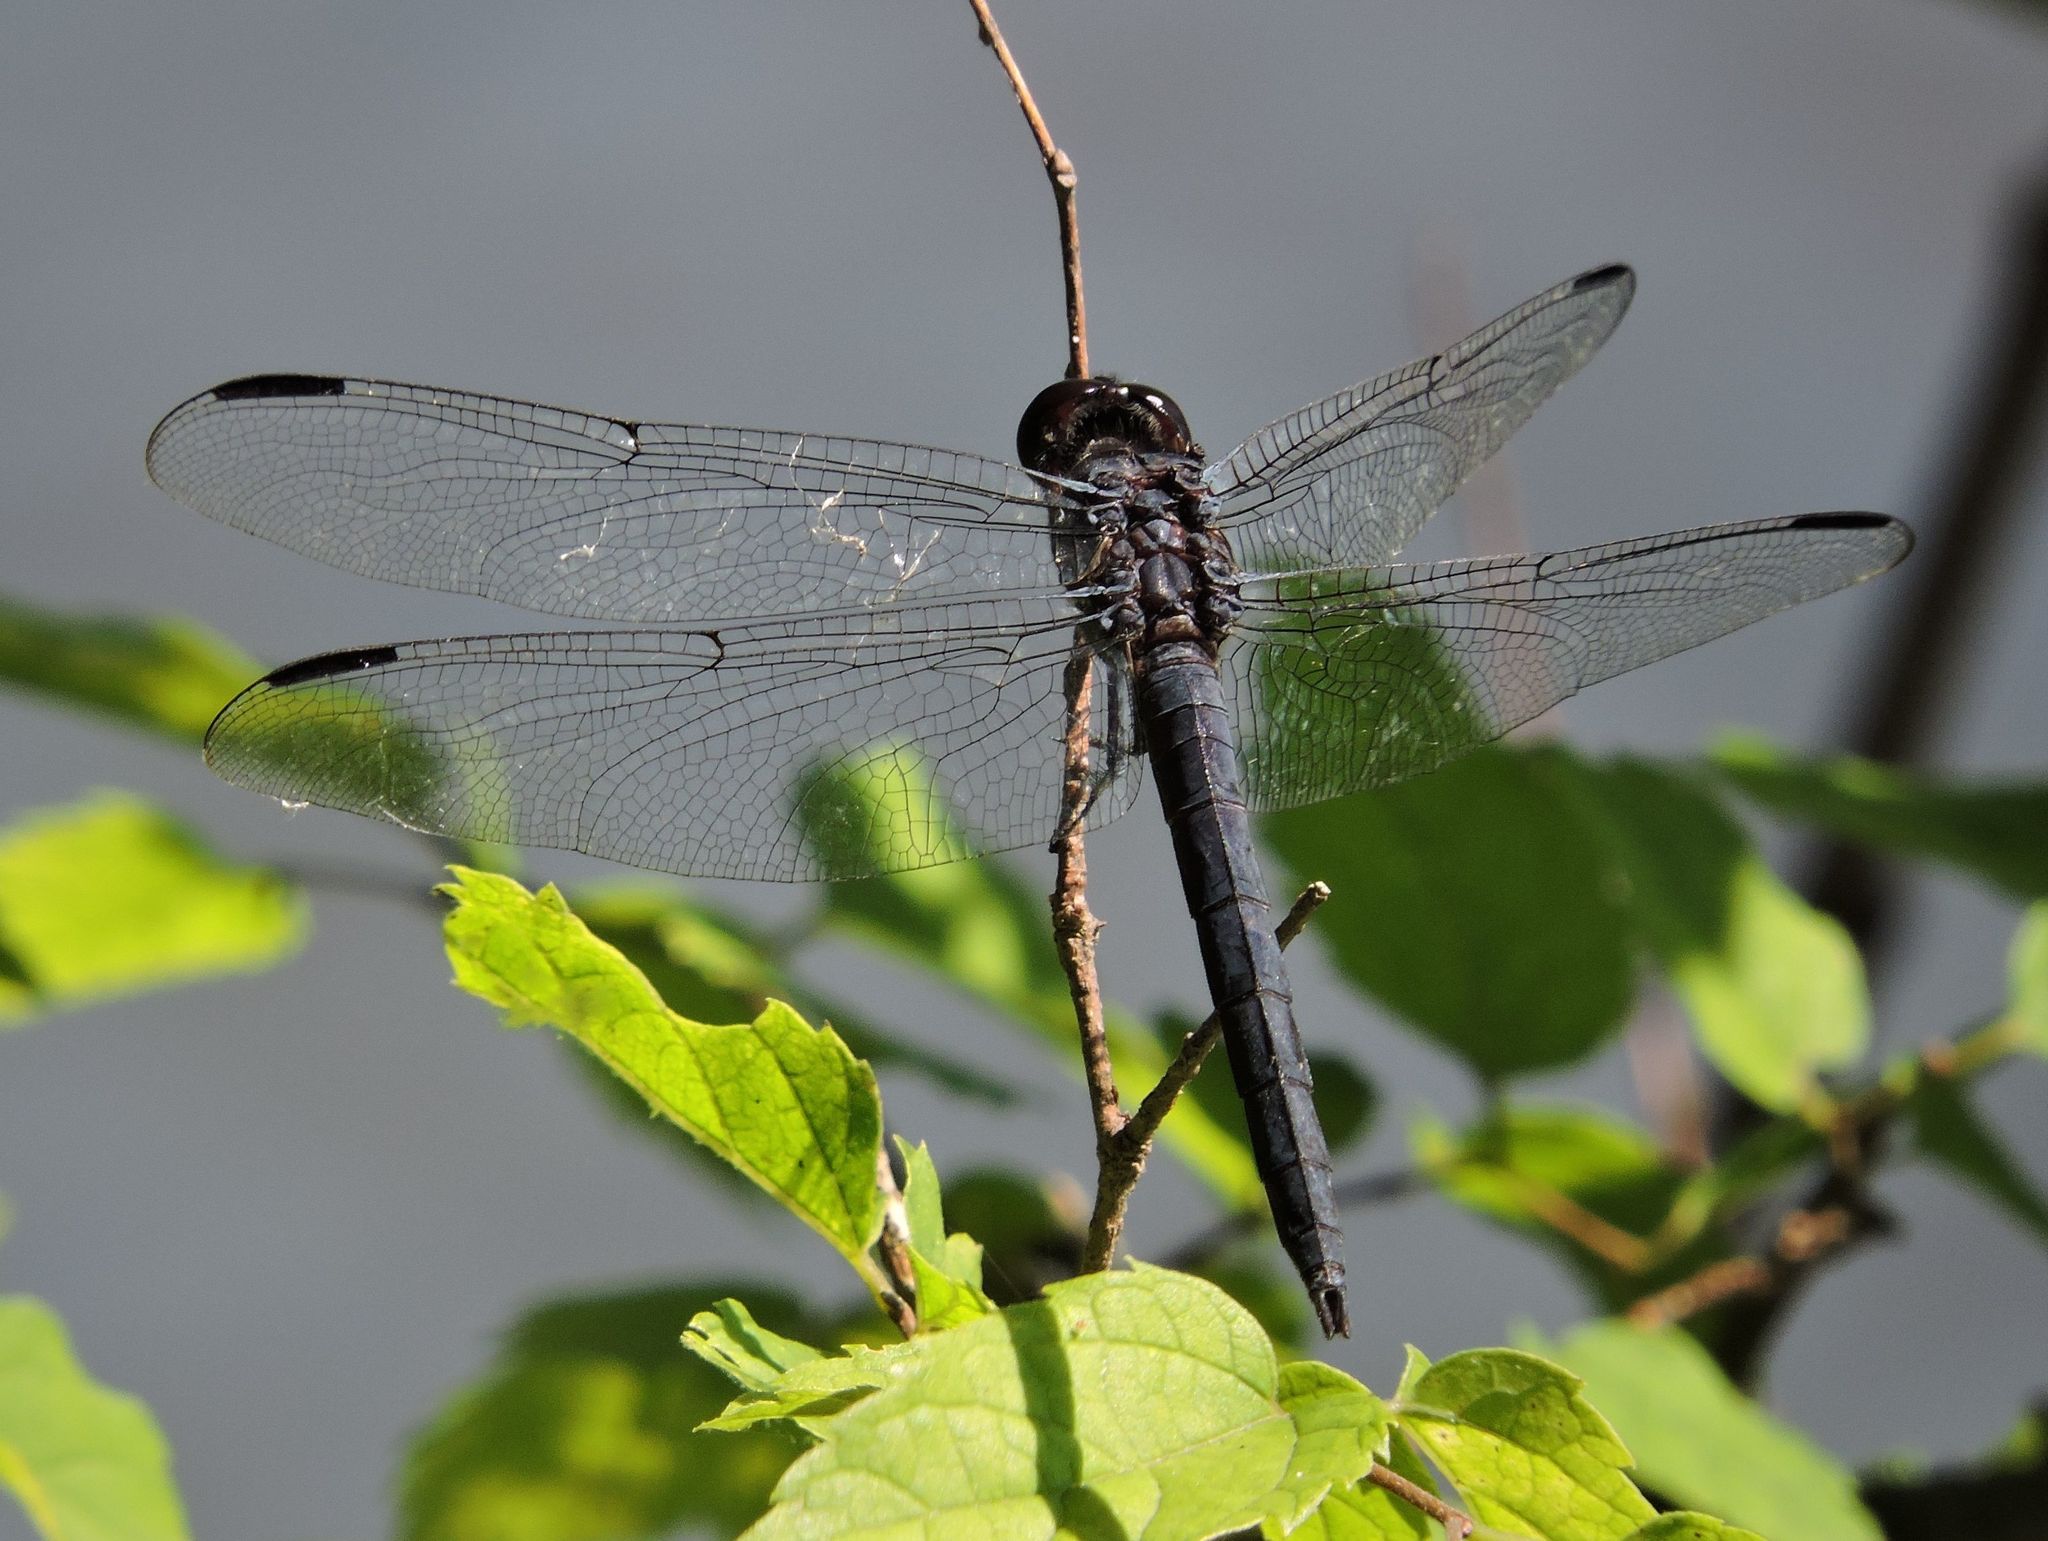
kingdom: Animalia
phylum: Arthropoda
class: Insecta
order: Odonata
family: Libellulidae
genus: Libellula
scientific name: Libellula incesta
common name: Slaty skimmer
